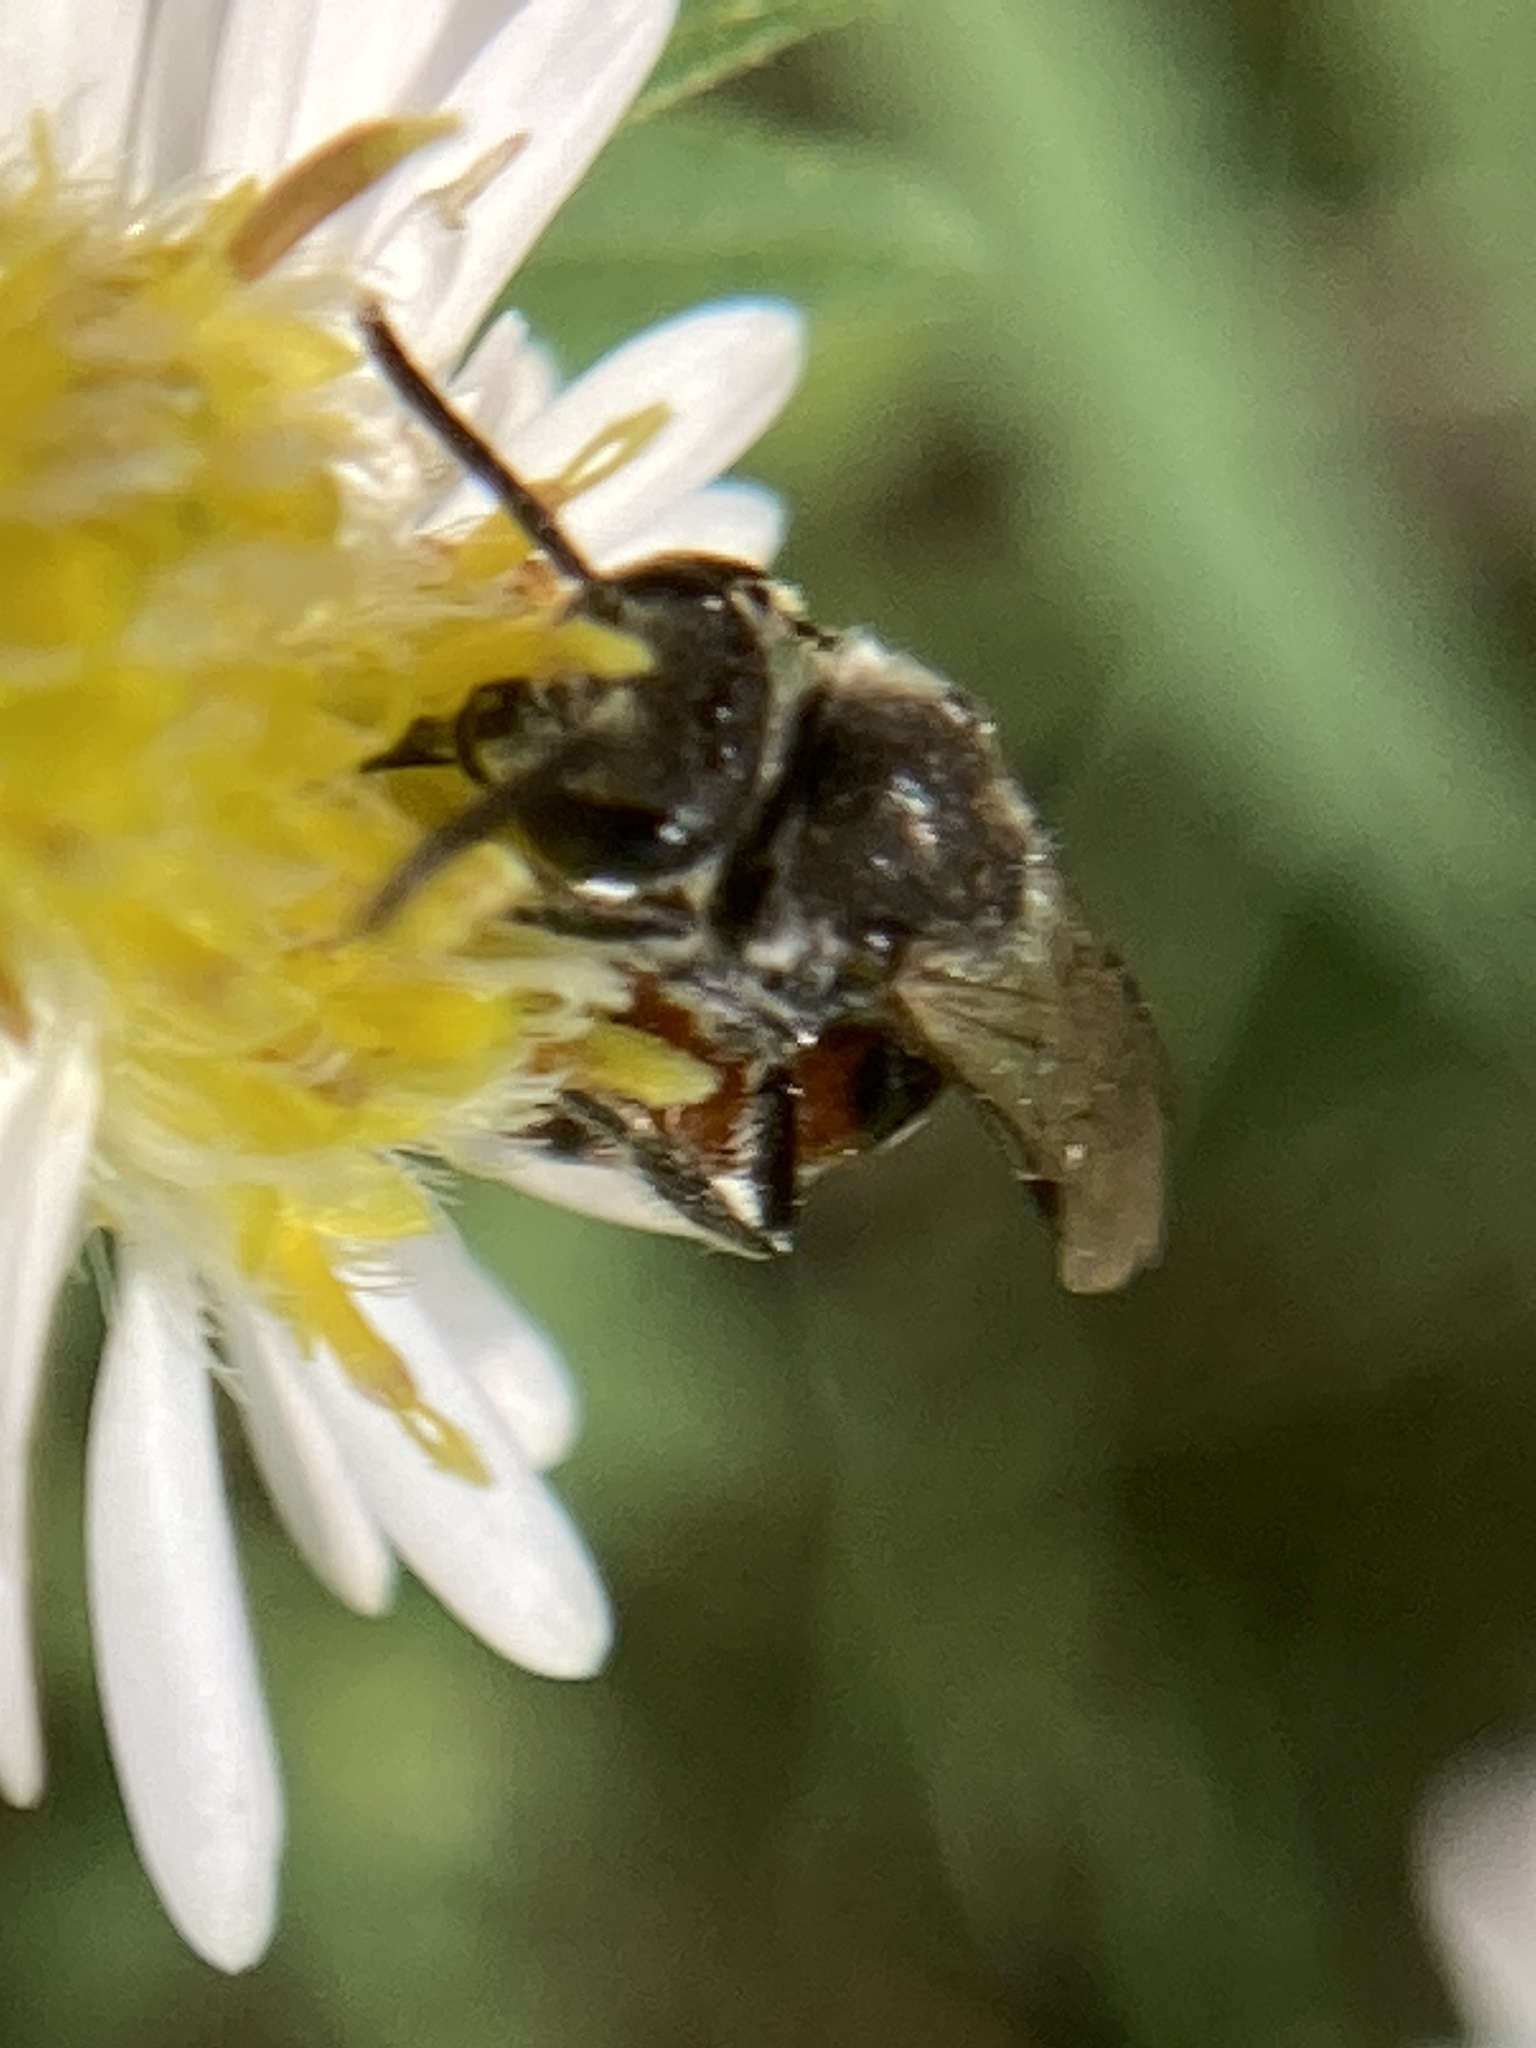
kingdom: Animalia
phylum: Arthropoda
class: Insecta
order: Hymenoptera
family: Halictidae
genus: Sphecodes
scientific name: Sphecodes davisii
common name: Davis's cuckoo sweat bee
